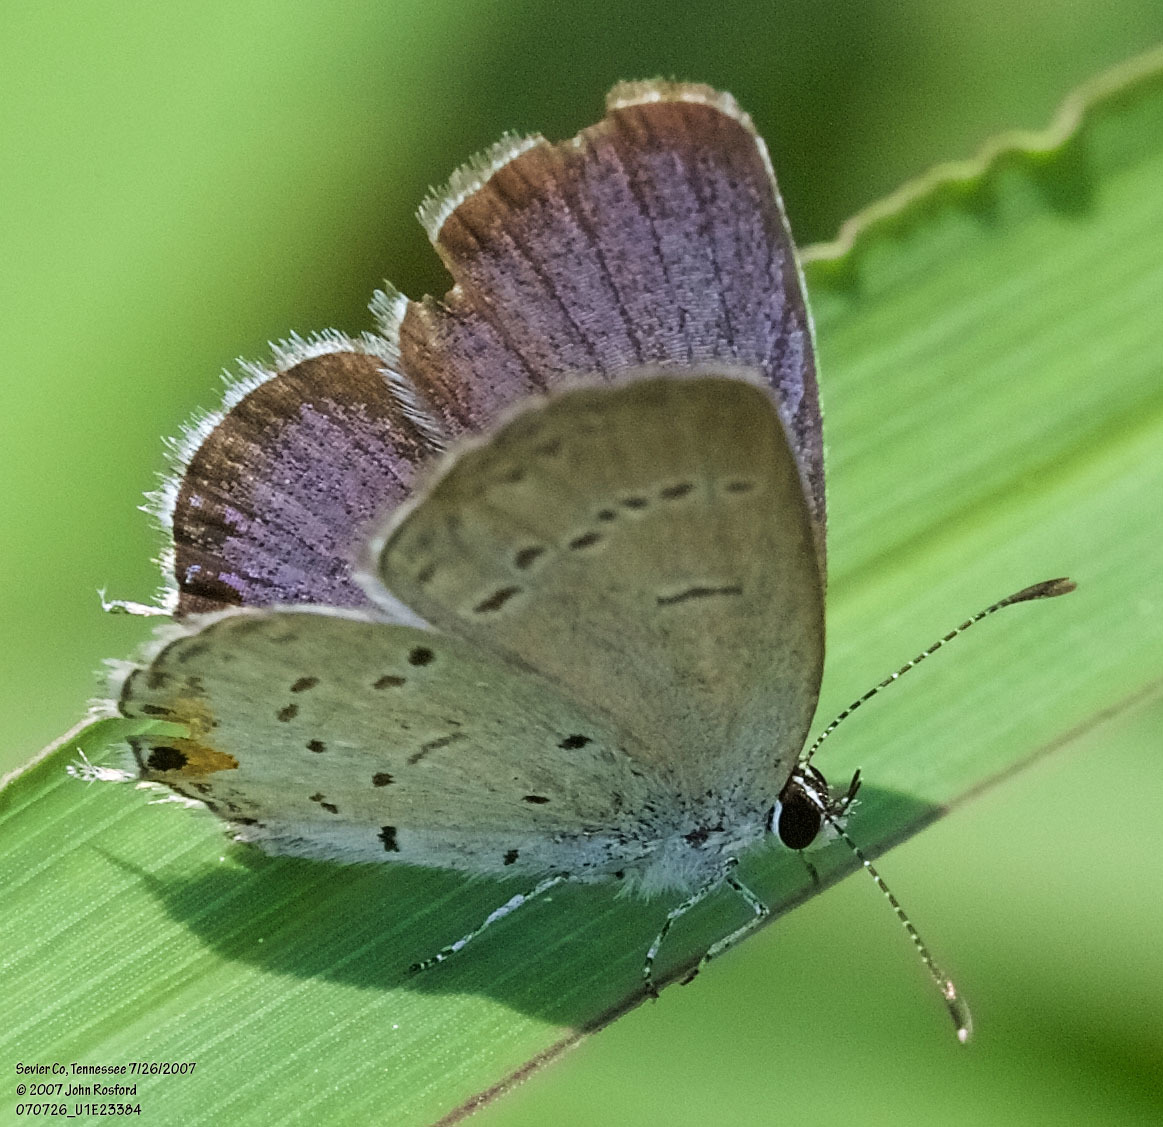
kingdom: Animalia
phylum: Arthropoda
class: Insecta
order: Lepidoptera
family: Lycaenidae
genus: Elkalyce
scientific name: Elkalyce comyntas
